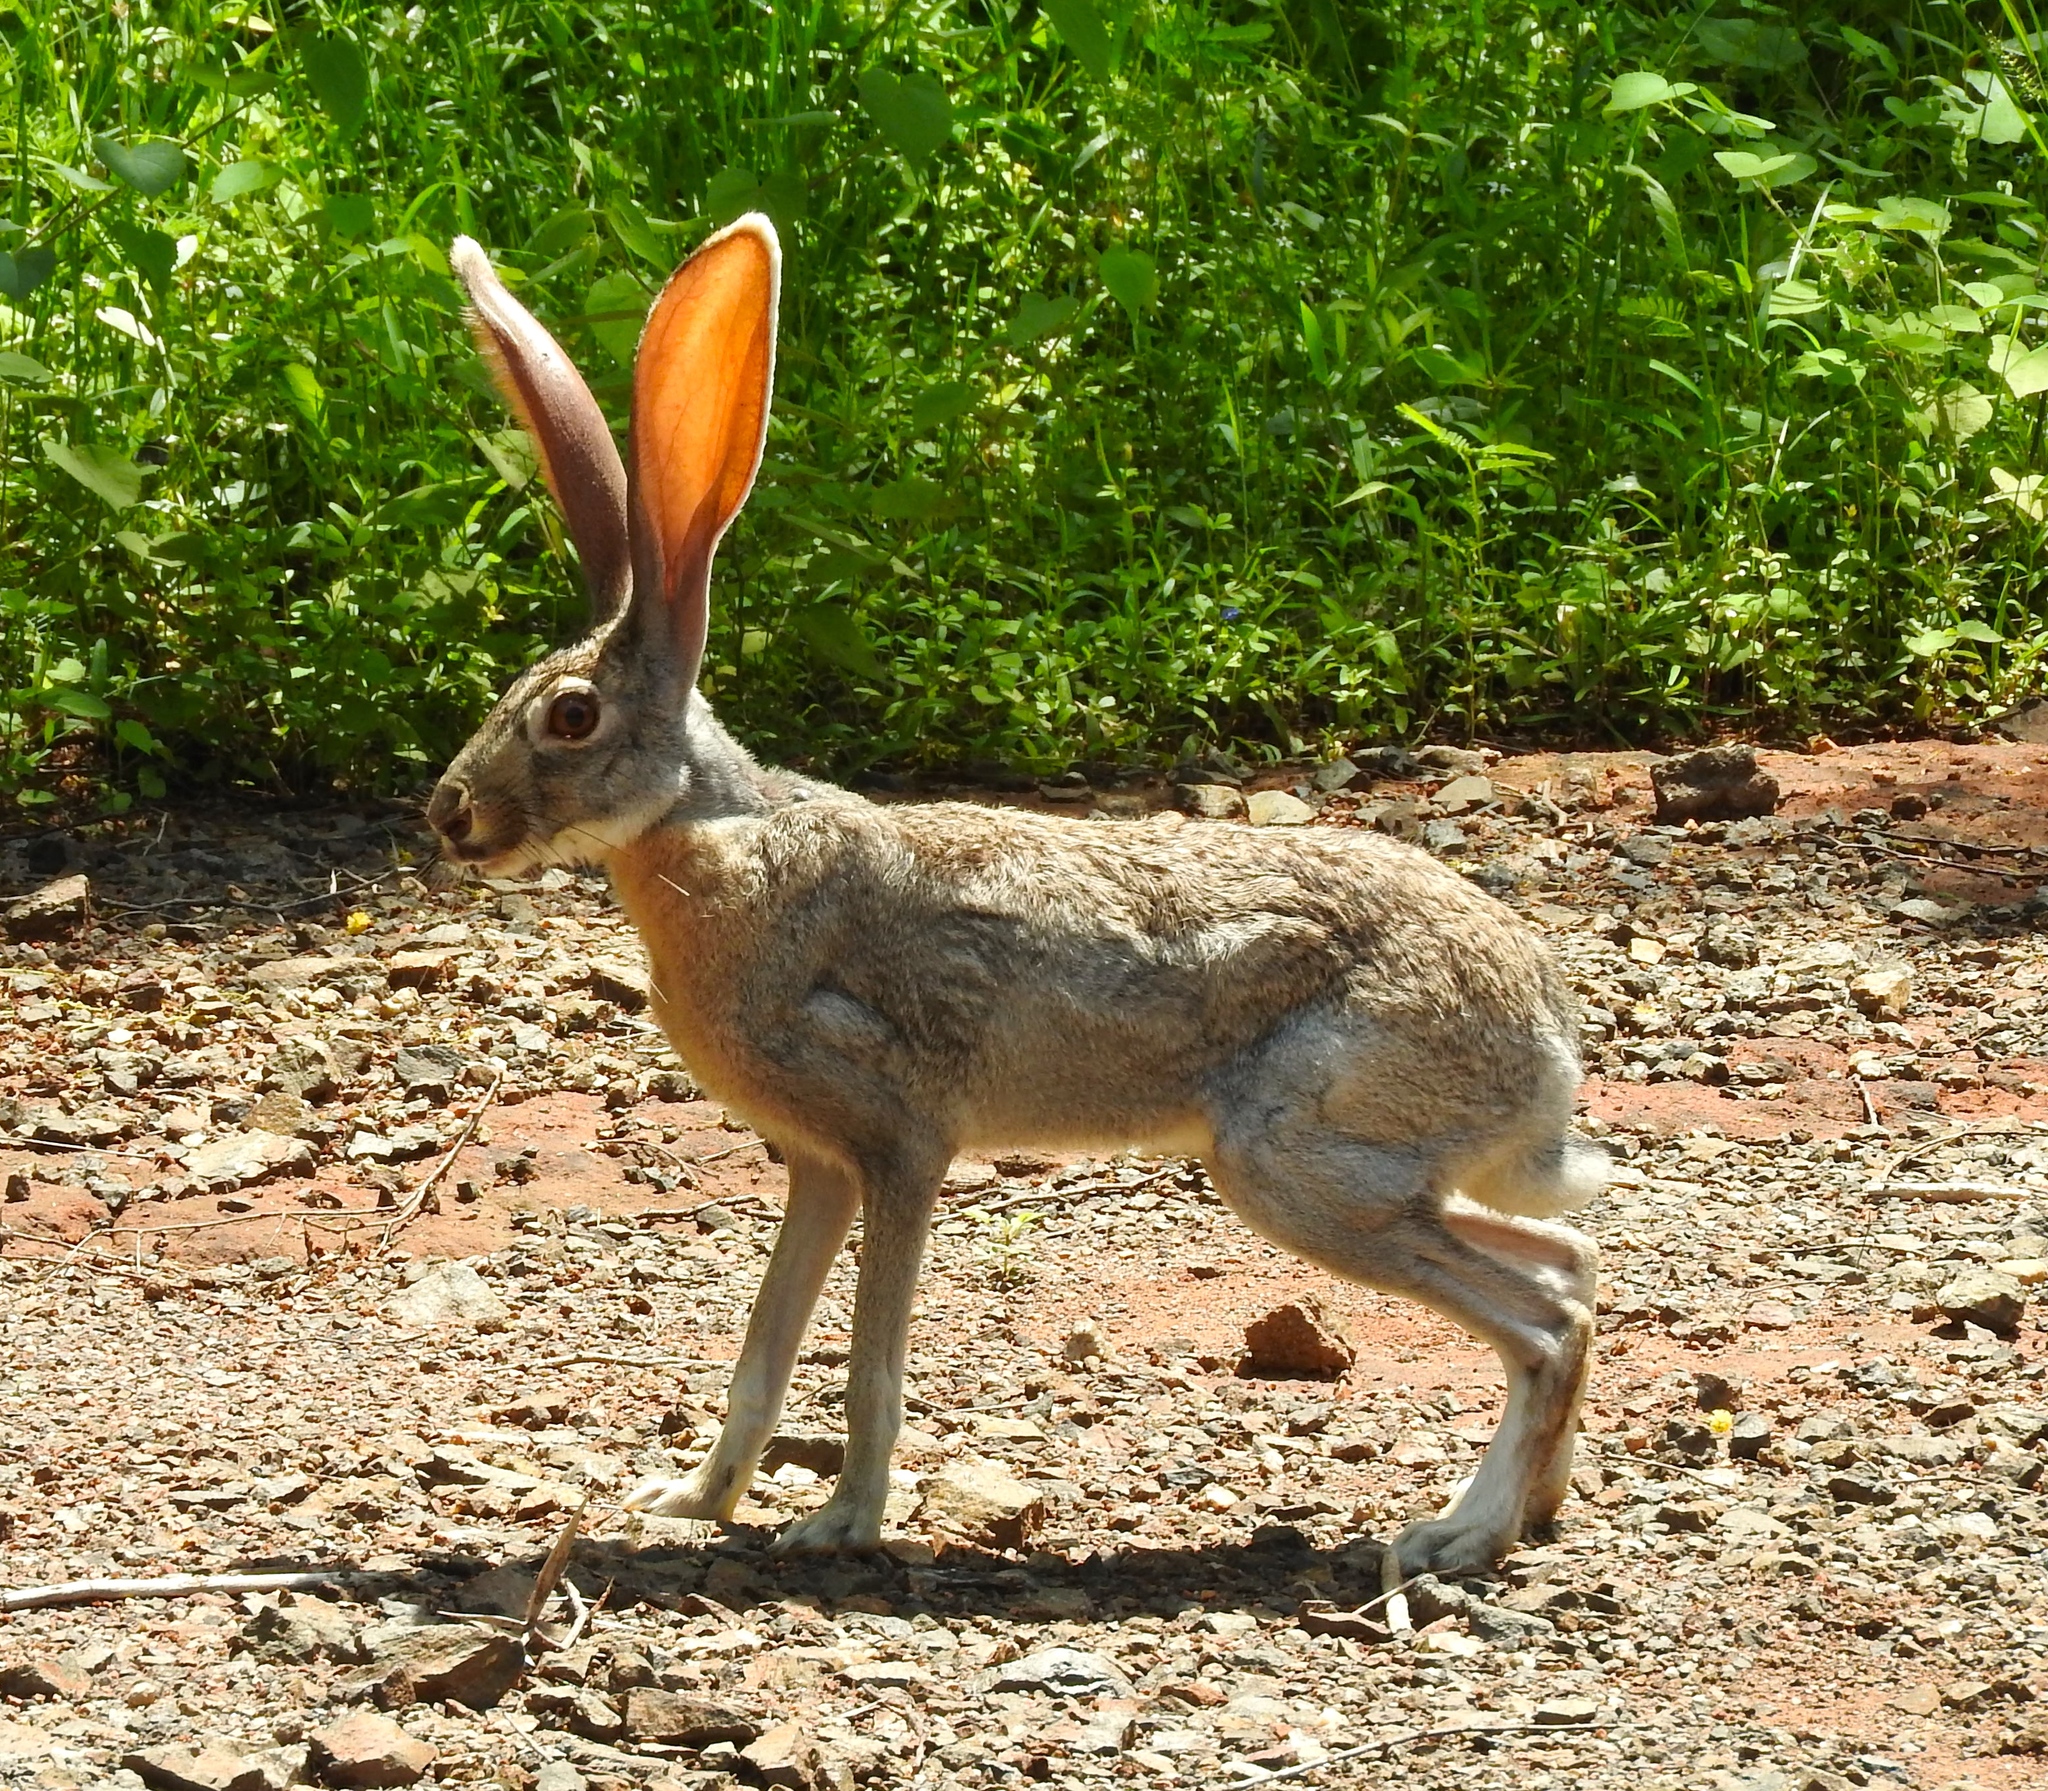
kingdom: Animalia
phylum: Chordata
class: Mammalia
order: Lagomorpha
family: Leporidae
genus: Lepus
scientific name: Lepus alleni
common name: Antelope jackrabbit
